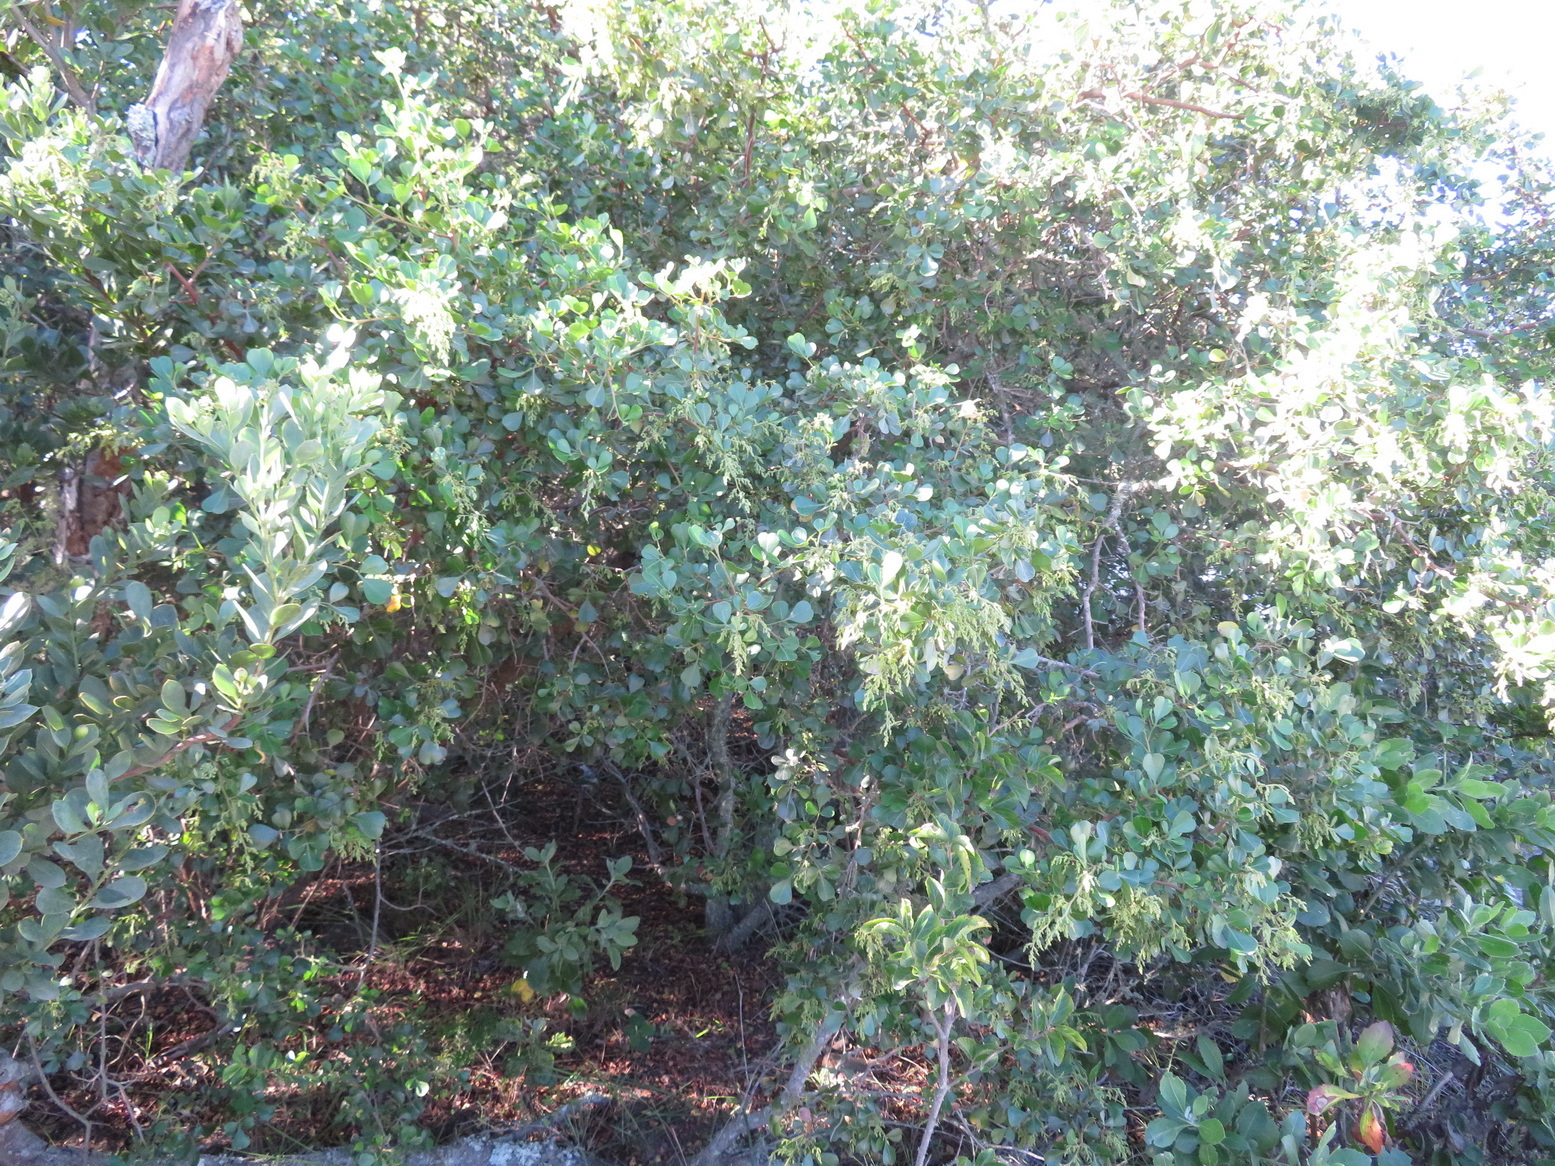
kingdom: Plantae
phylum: Tracheophyta
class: Magnoliopsida
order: Sapindales
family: Anacardiaceae
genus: Searsia
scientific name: Searsia glauca
